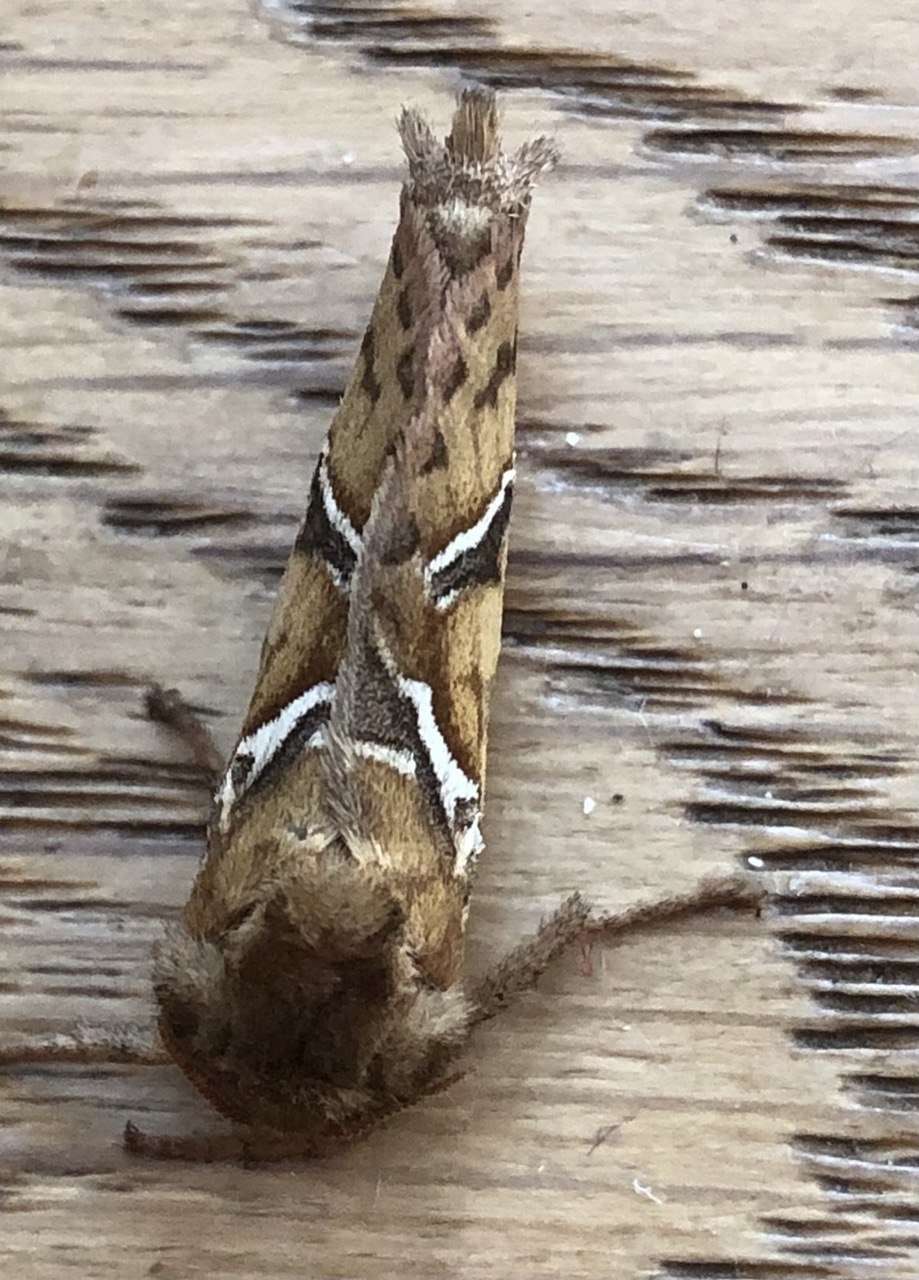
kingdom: Animalia
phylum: Arthropoda
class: Insecta
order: Lepidoptera
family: Hepialidae
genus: Triodia
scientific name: Triodia sylvina
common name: Orange swift
